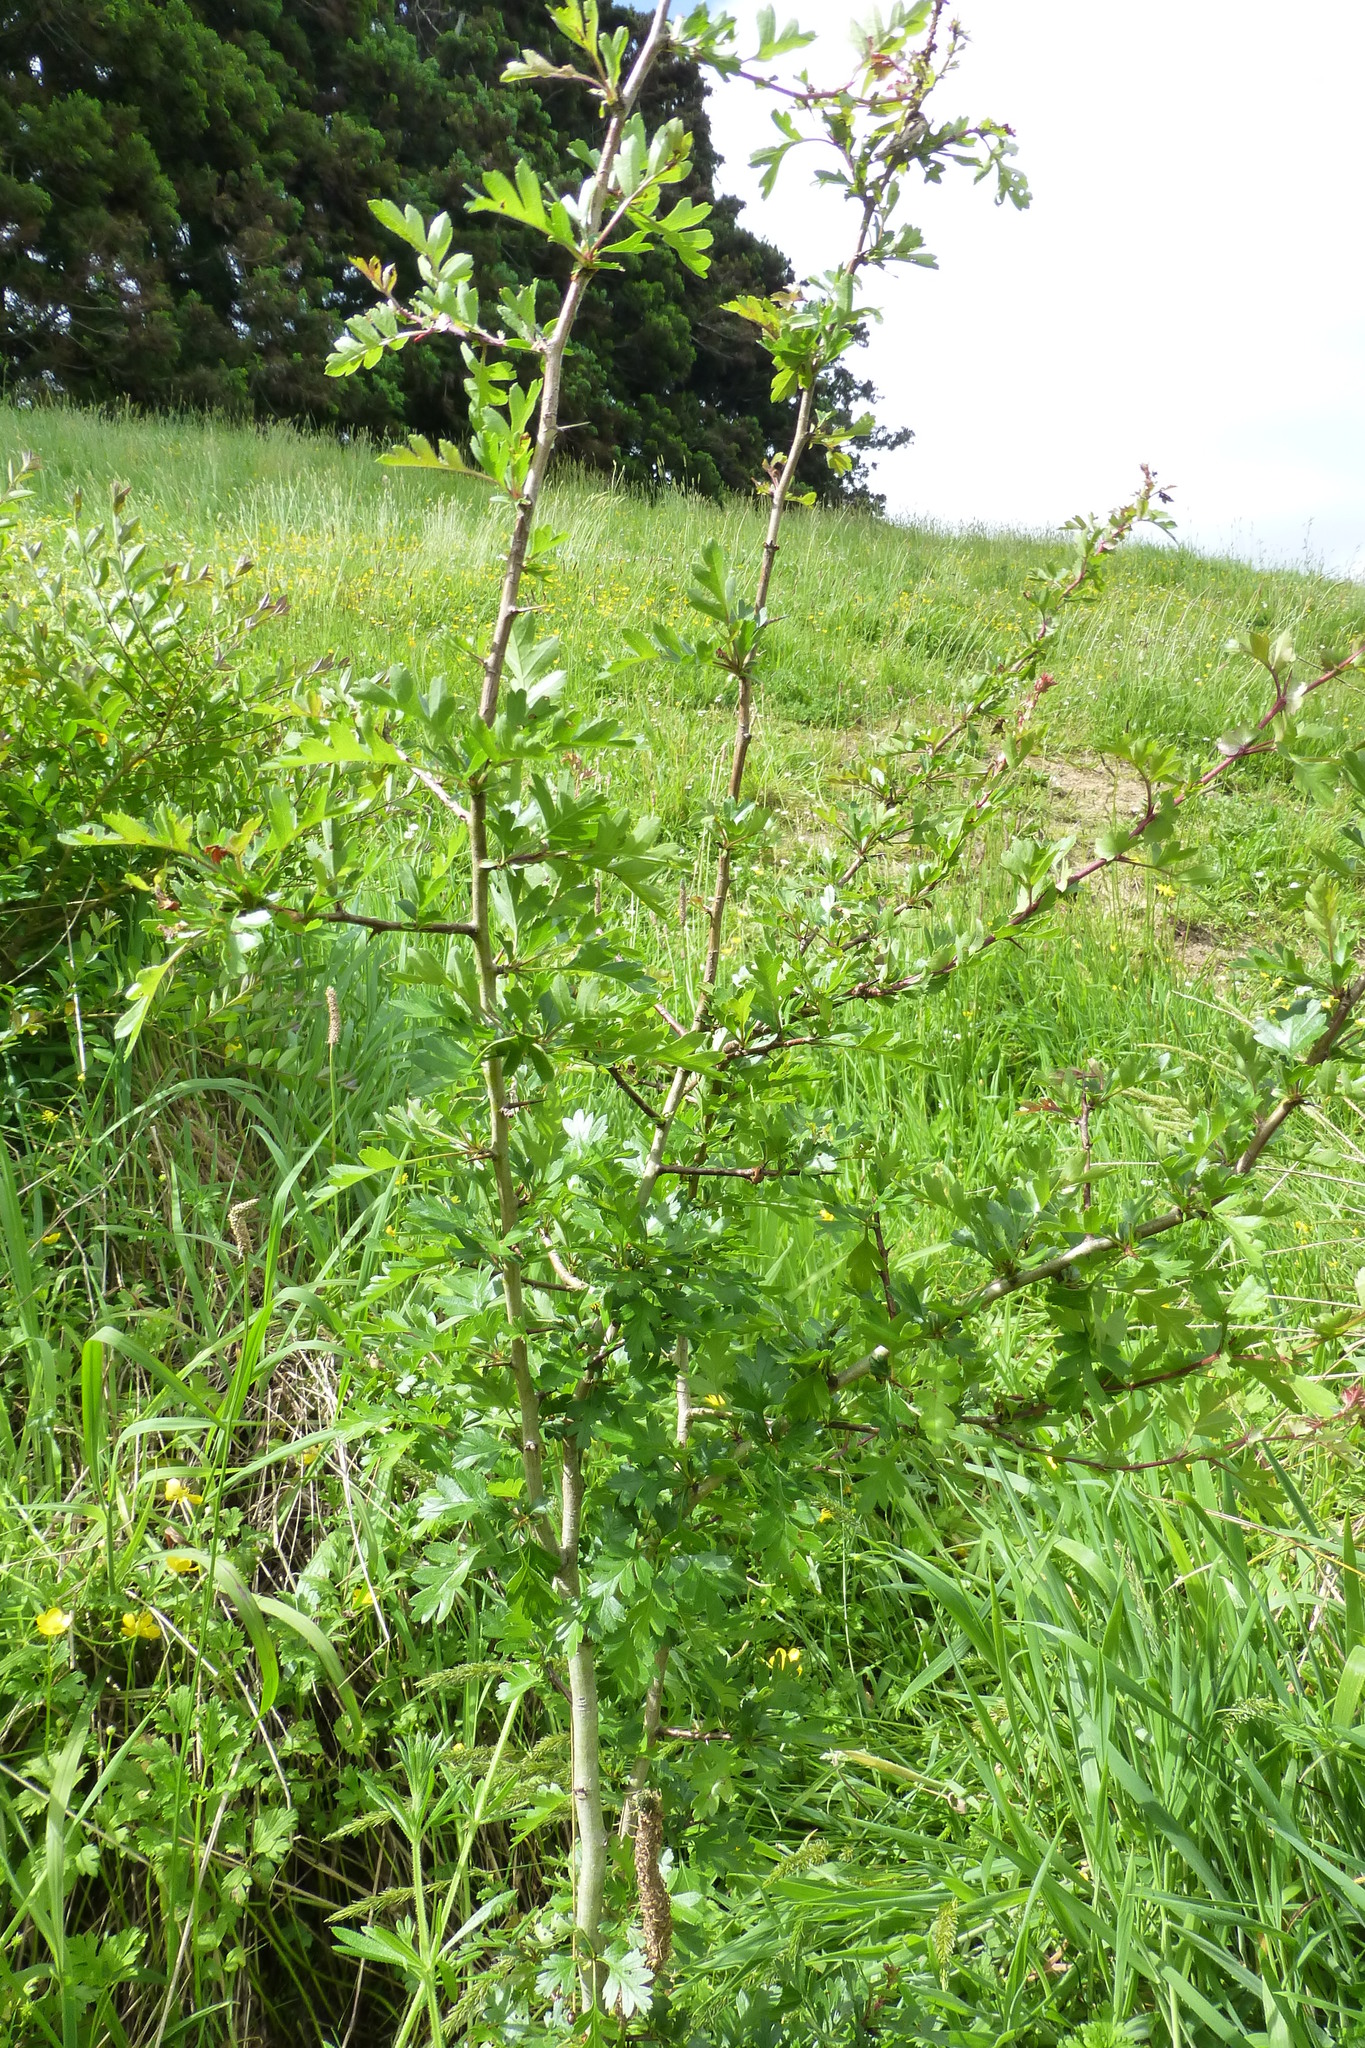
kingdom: Plantae
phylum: Tracheophyta
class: Magnoliopsida
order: Rosales
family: Rosaceae
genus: Crataegus
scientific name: Crataegus monogyna
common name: Hawthorn
